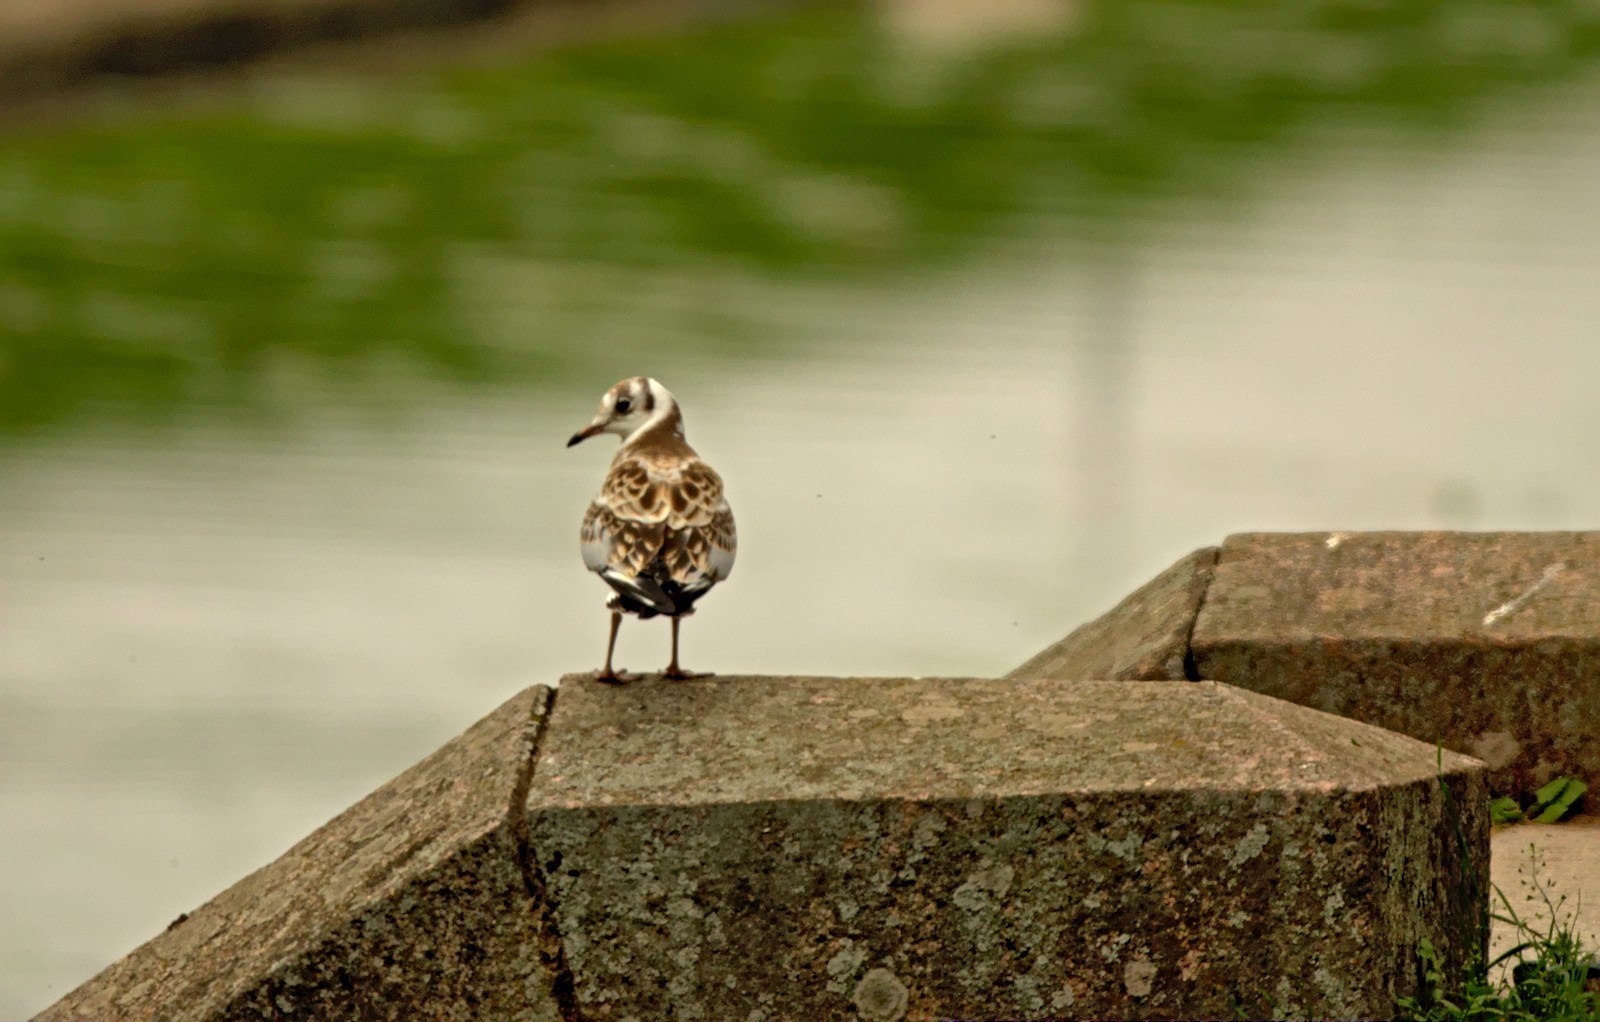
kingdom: Animalia
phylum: Chordata
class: Aves
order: Charadriiformes
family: Laridae
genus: Chroicocephalus
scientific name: Chroicocephalus ridibundus
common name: Black-headed gull
